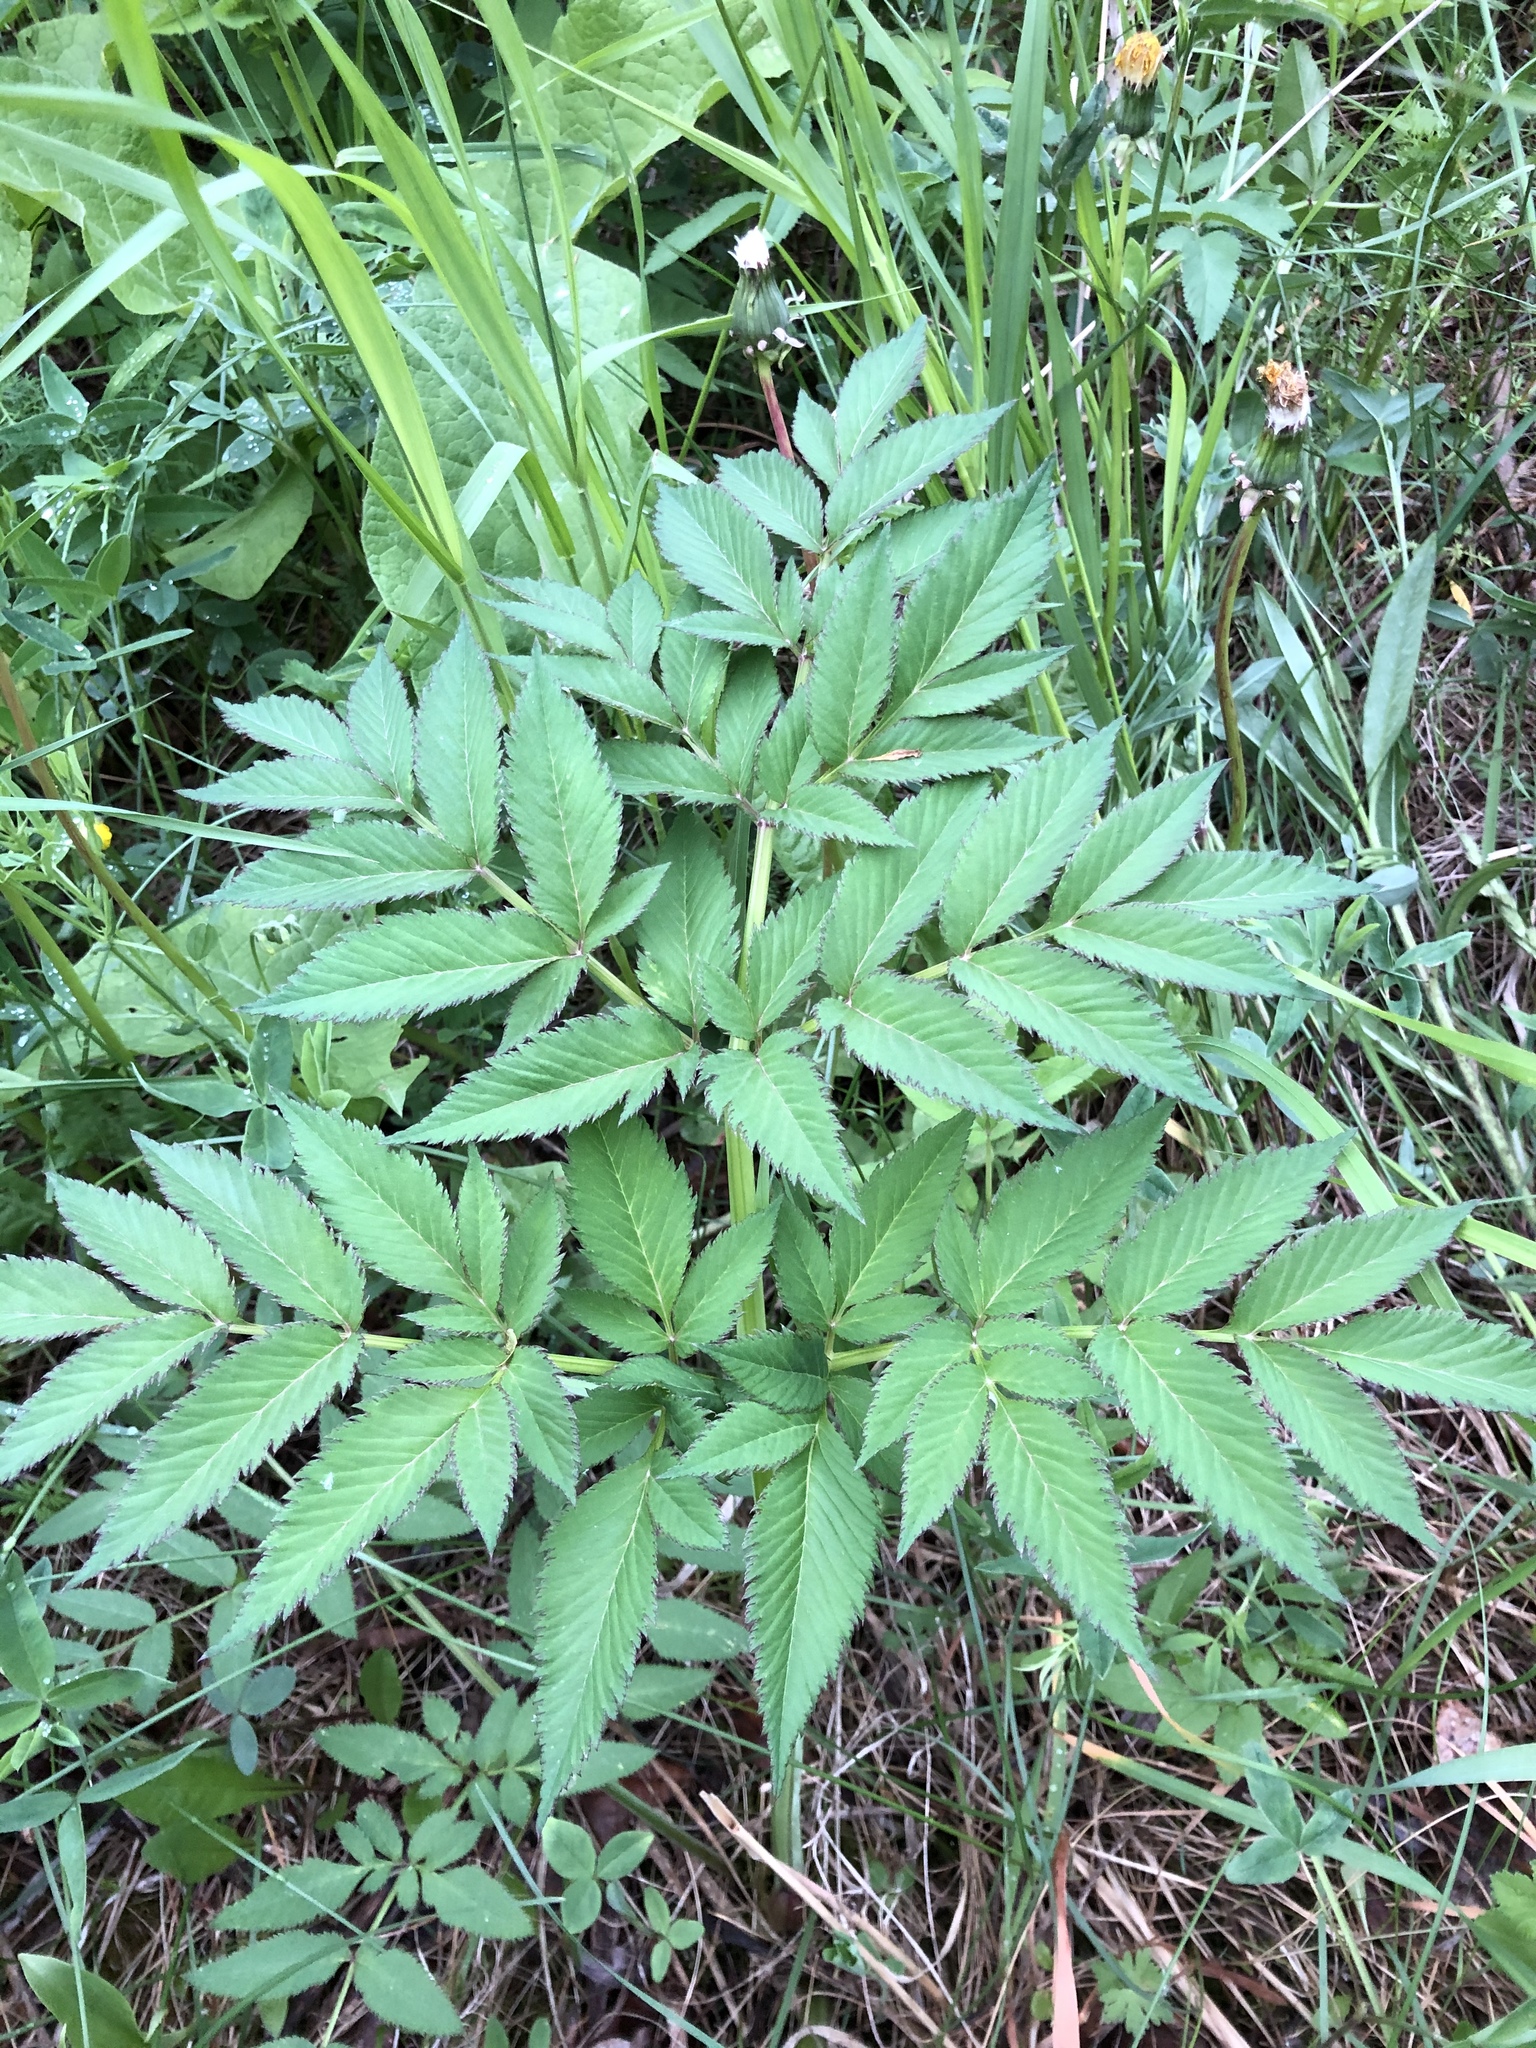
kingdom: Plantae
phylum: Tracheophyta
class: Magnoliopsida
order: Apiales
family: Apiaceae
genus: Angelica
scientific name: Angelica sylvestris
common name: Wild angelica
